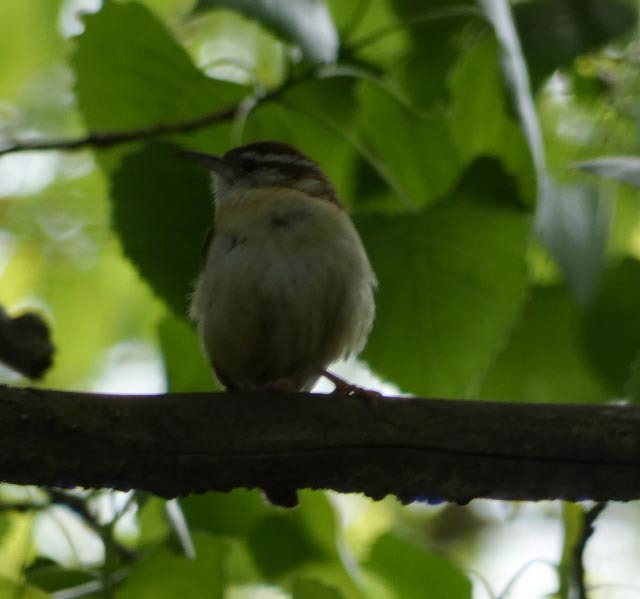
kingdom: Animalia
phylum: Chordata
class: Aves
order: Passeriformes
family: Troglodytidae
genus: Thryothorus
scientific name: Thryothorus ludovicianus
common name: Carolina wren
